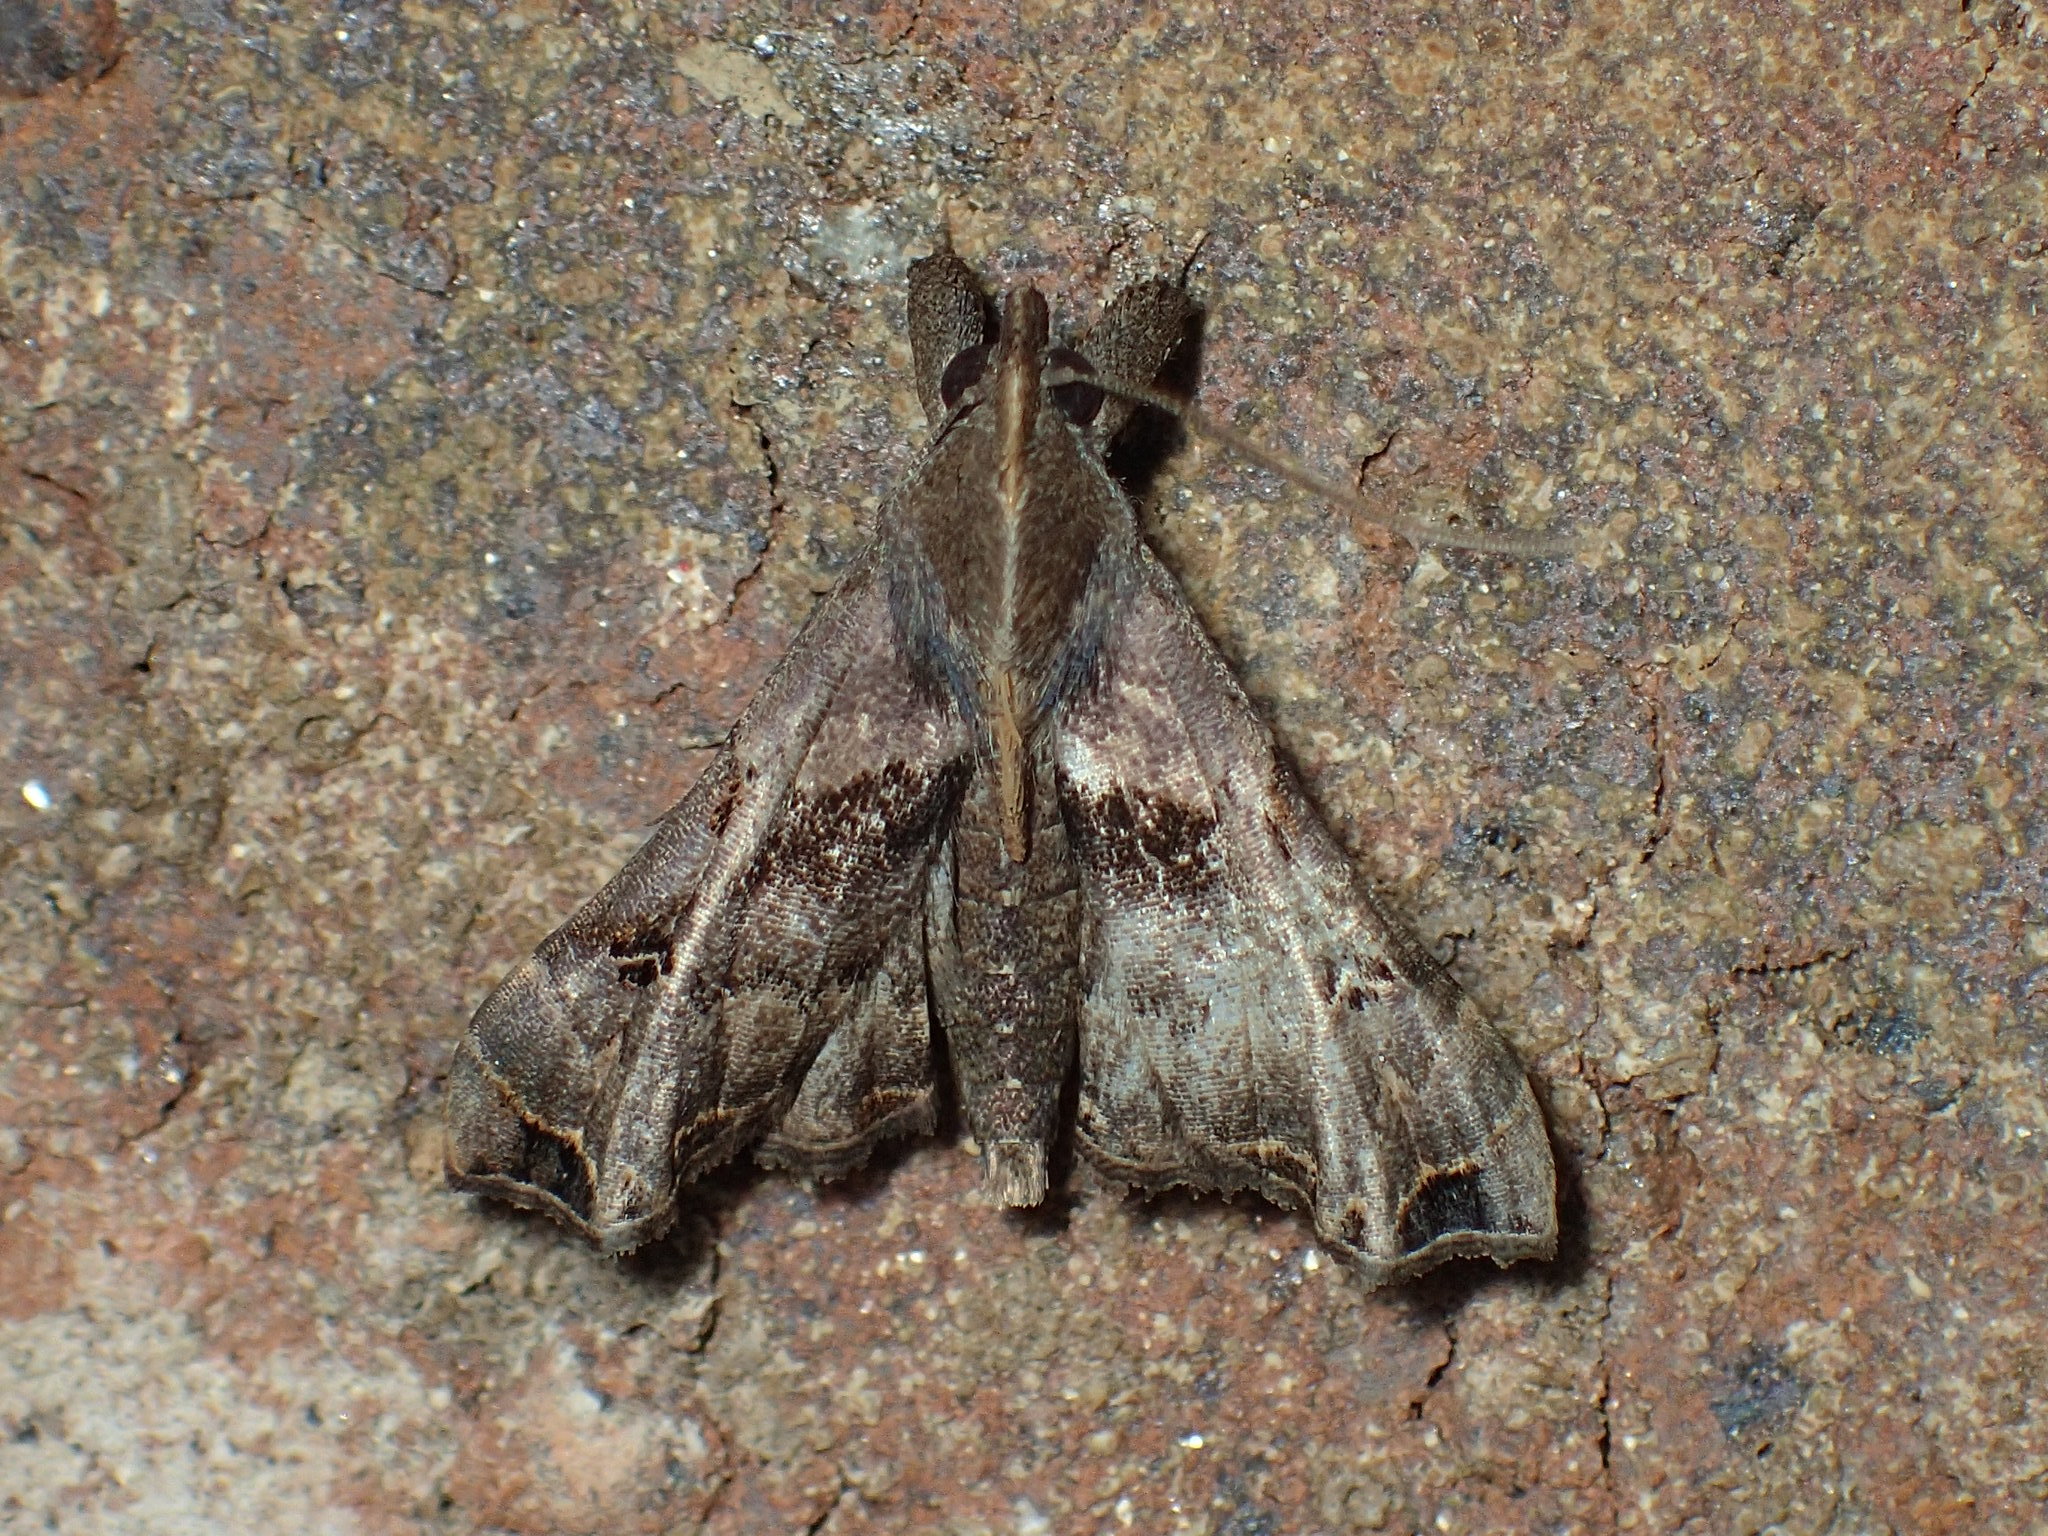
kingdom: Animalia
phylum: Arthropoda
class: Insecta
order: Lepidoptera
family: Erebidae
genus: Palthis
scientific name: Palthis asopialis
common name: Faint-spotted palthis moth
